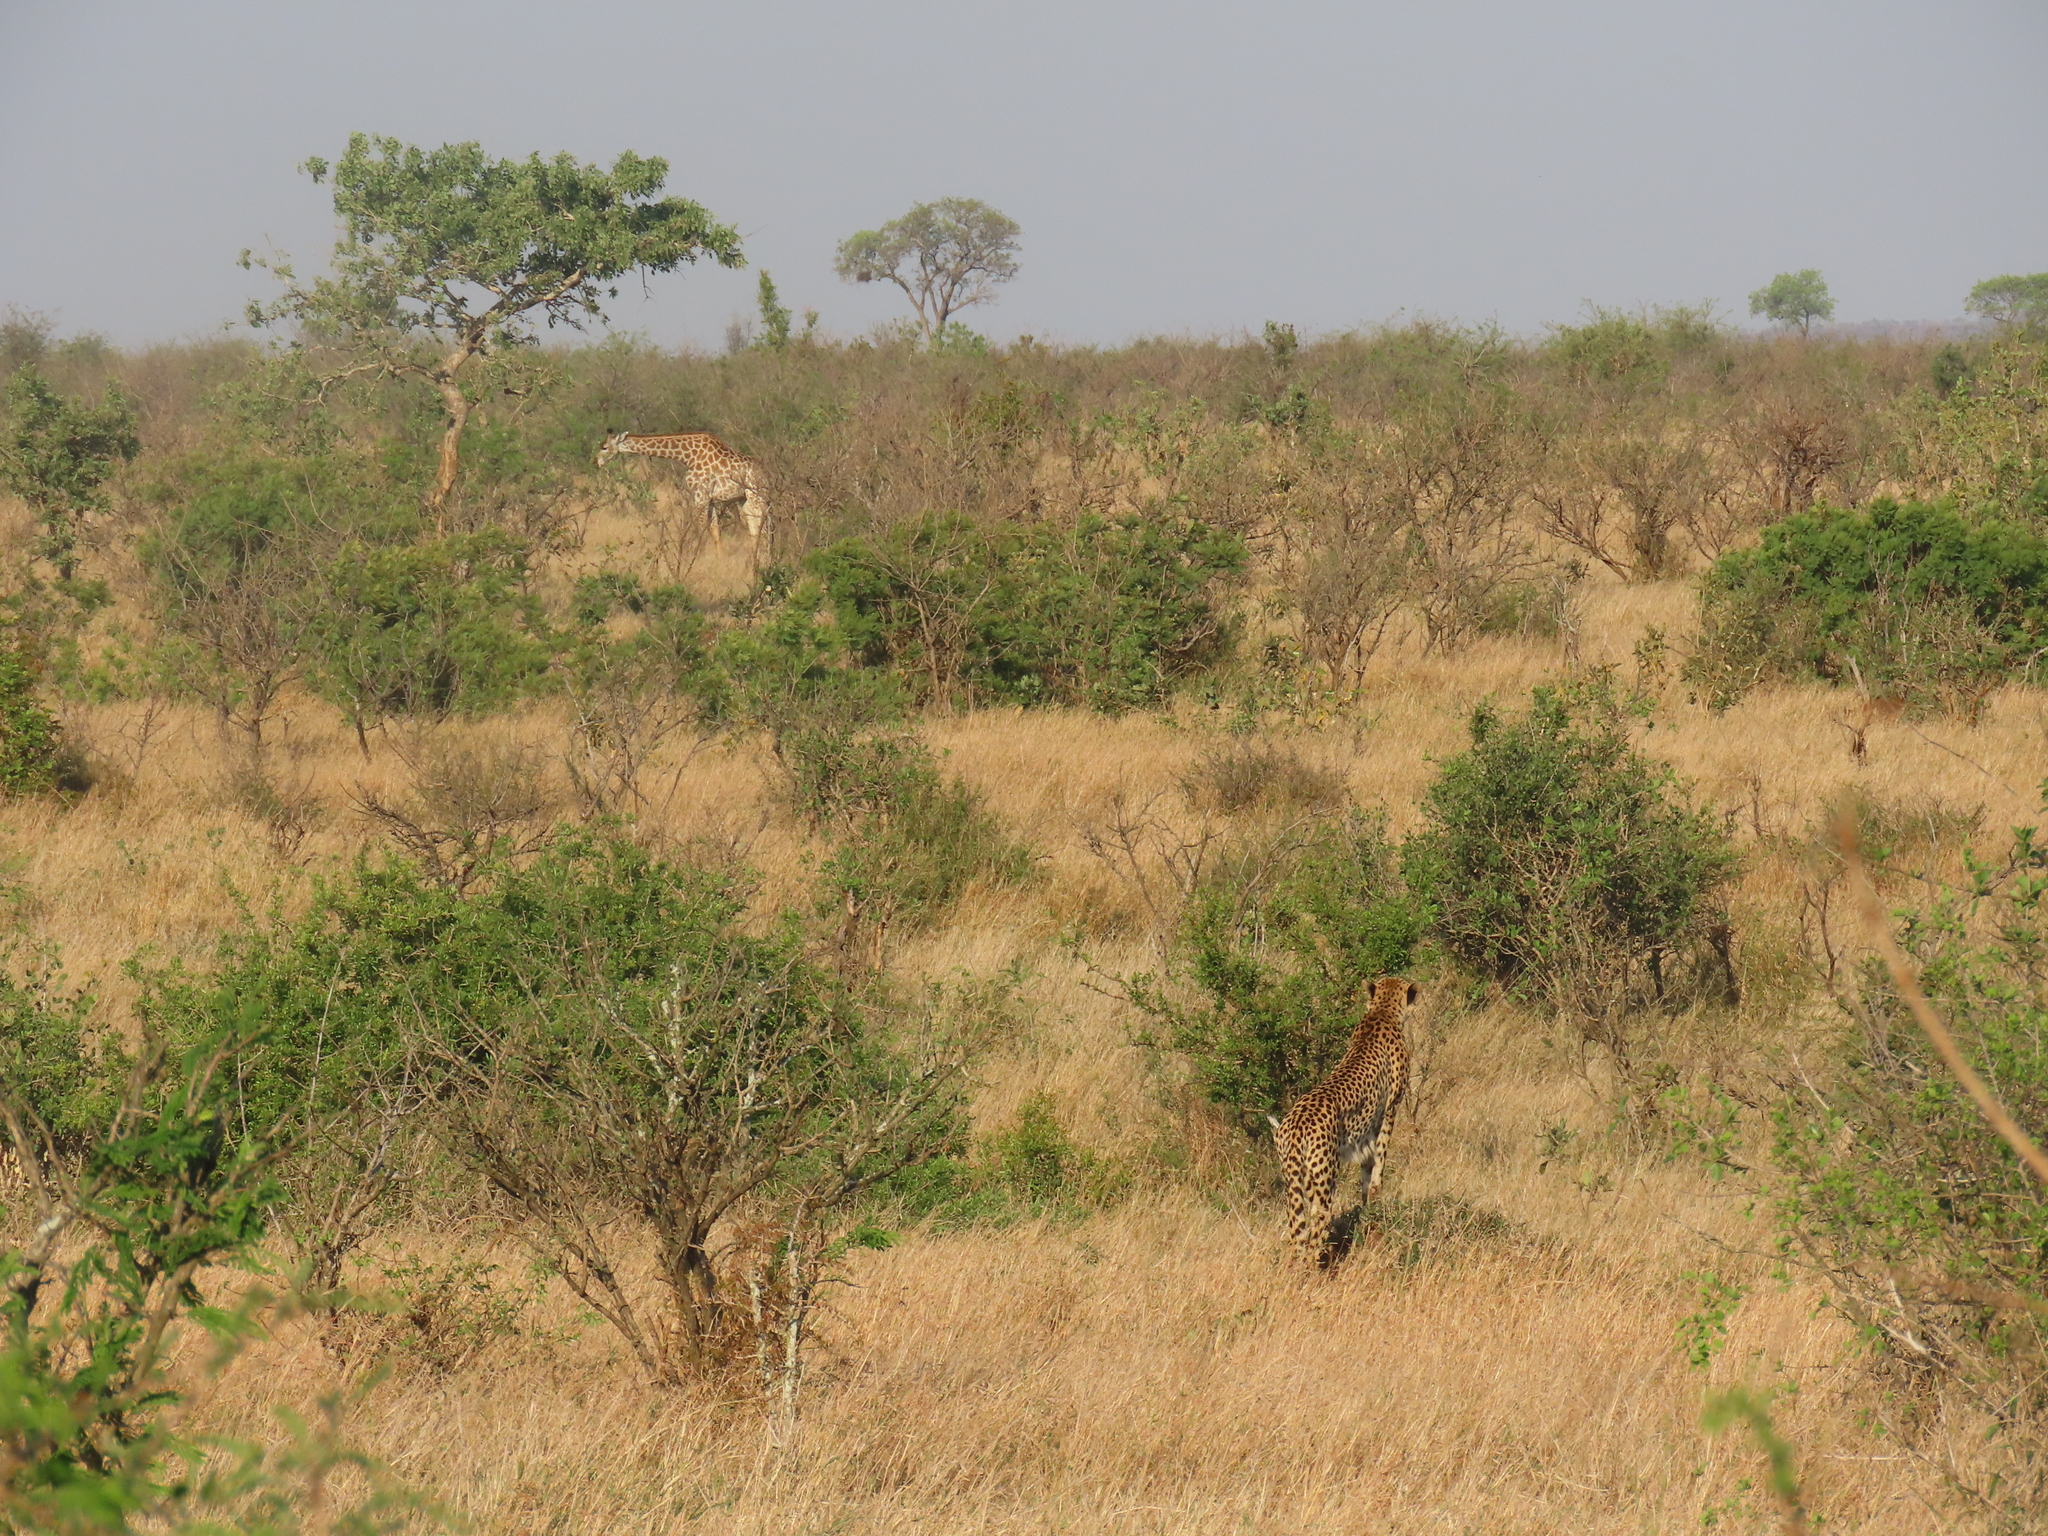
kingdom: Animalia
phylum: Chordata
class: Mammalia
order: Artiodactyla
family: Giraffidae
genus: Giraffa
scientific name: Giraffa giraffa
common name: Southern giraffe
